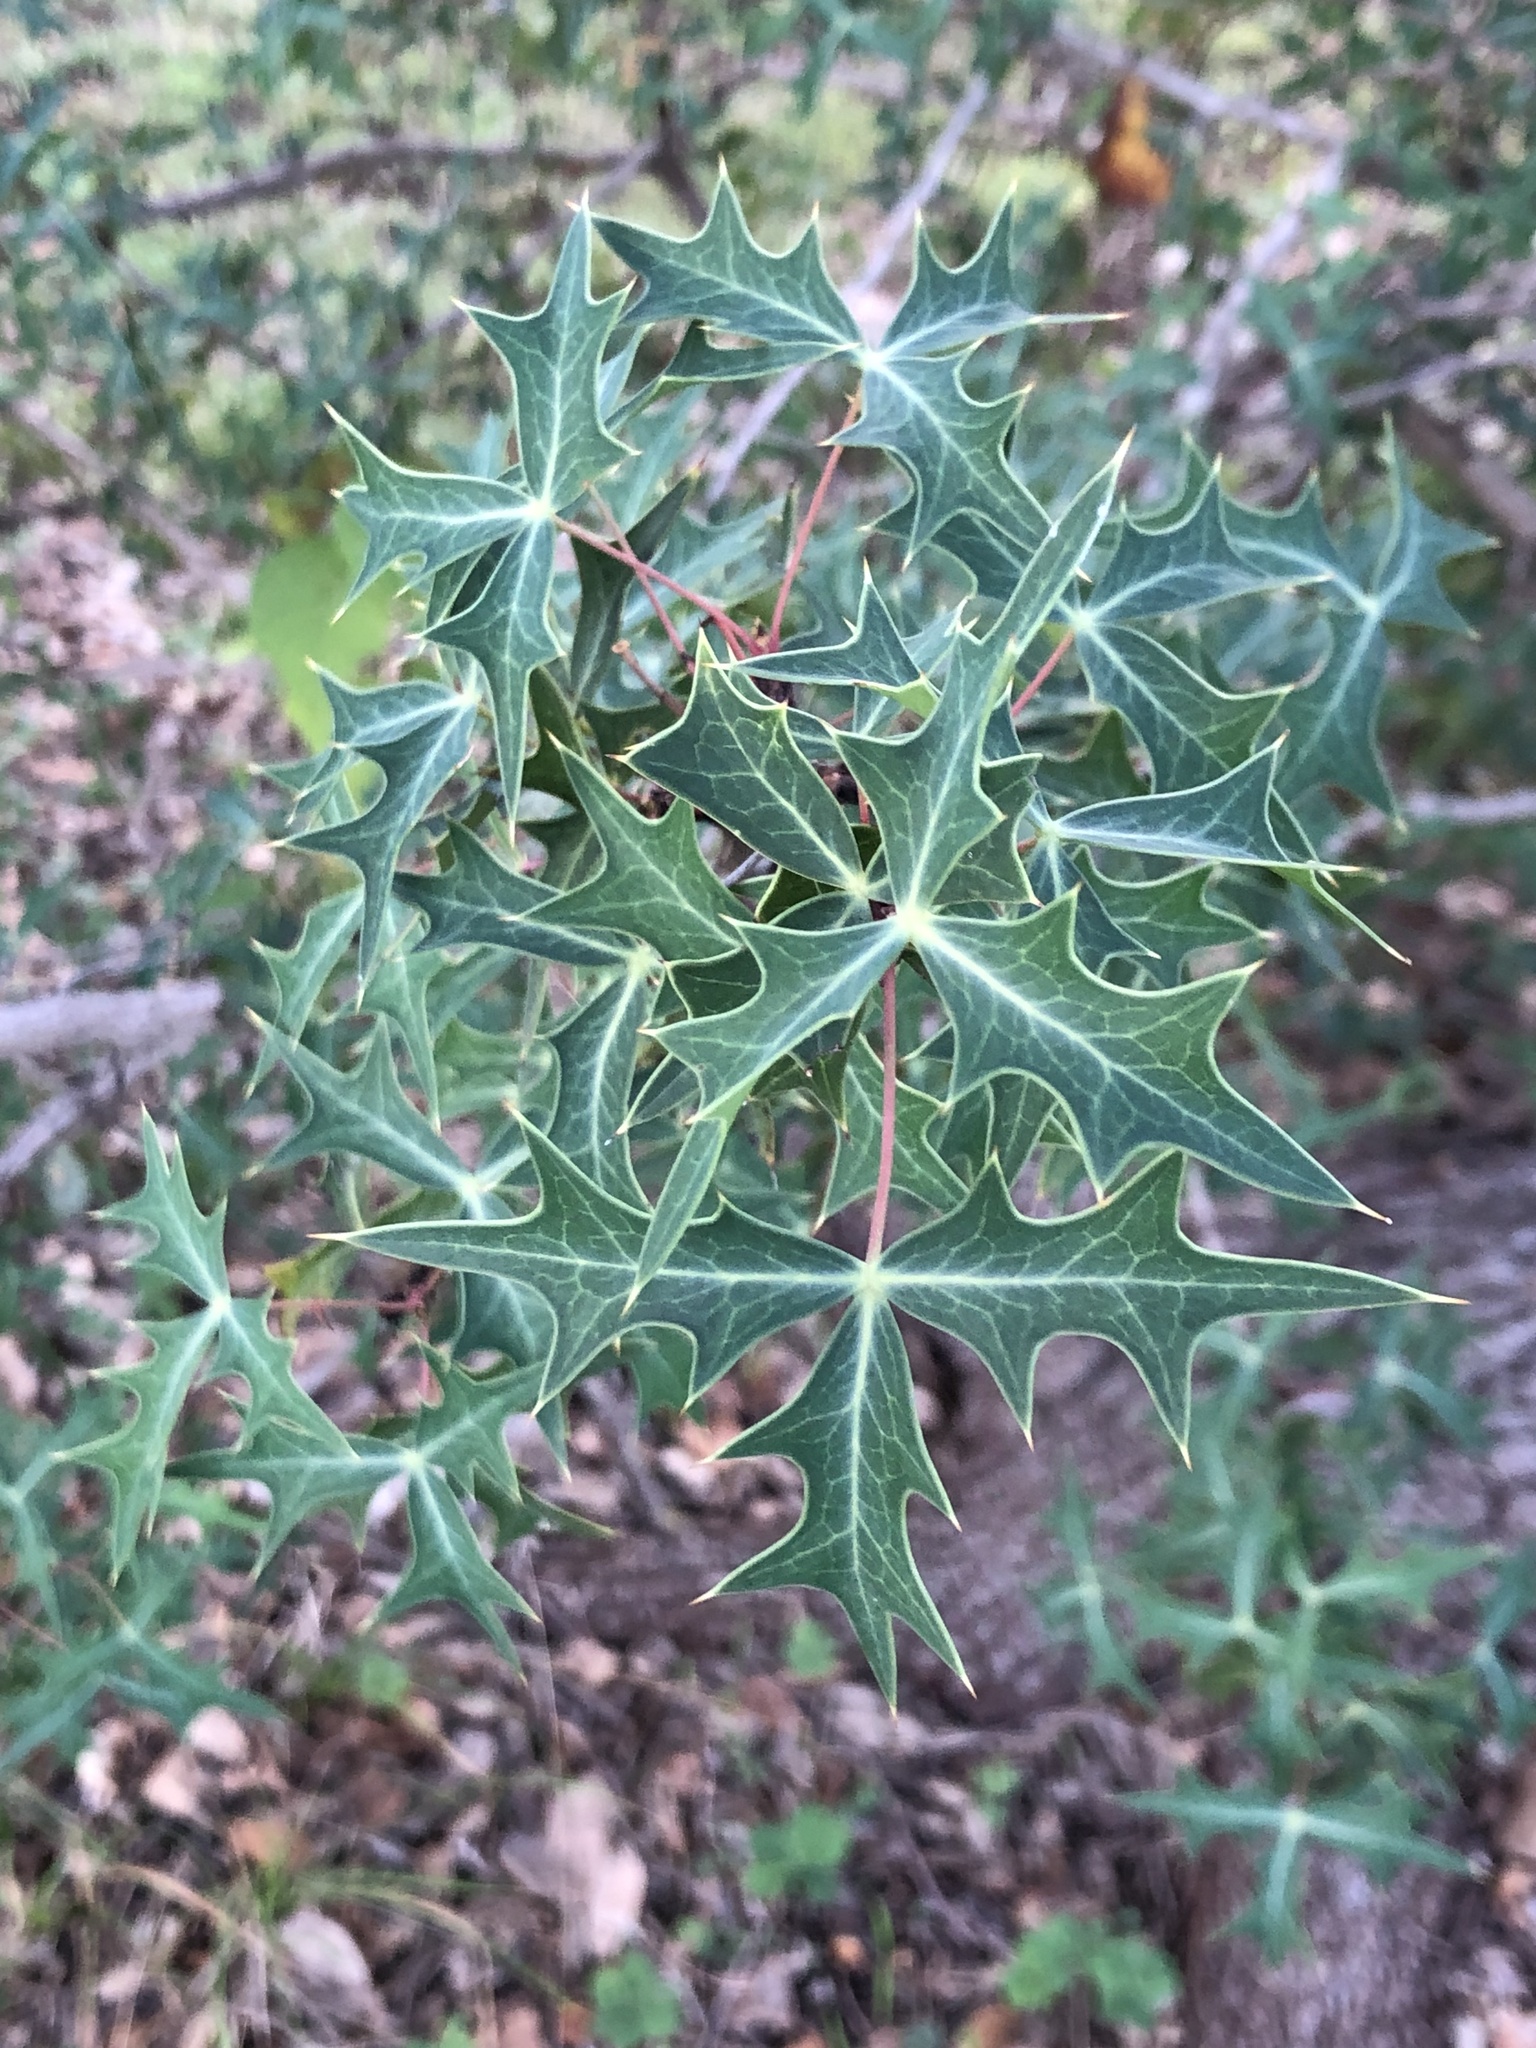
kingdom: Plantae
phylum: Tracheophyta
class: Magnoliopsida
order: Ranunculales
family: Berberidaceae
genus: Alloberberis
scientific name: Alloberberis trifoliolata
